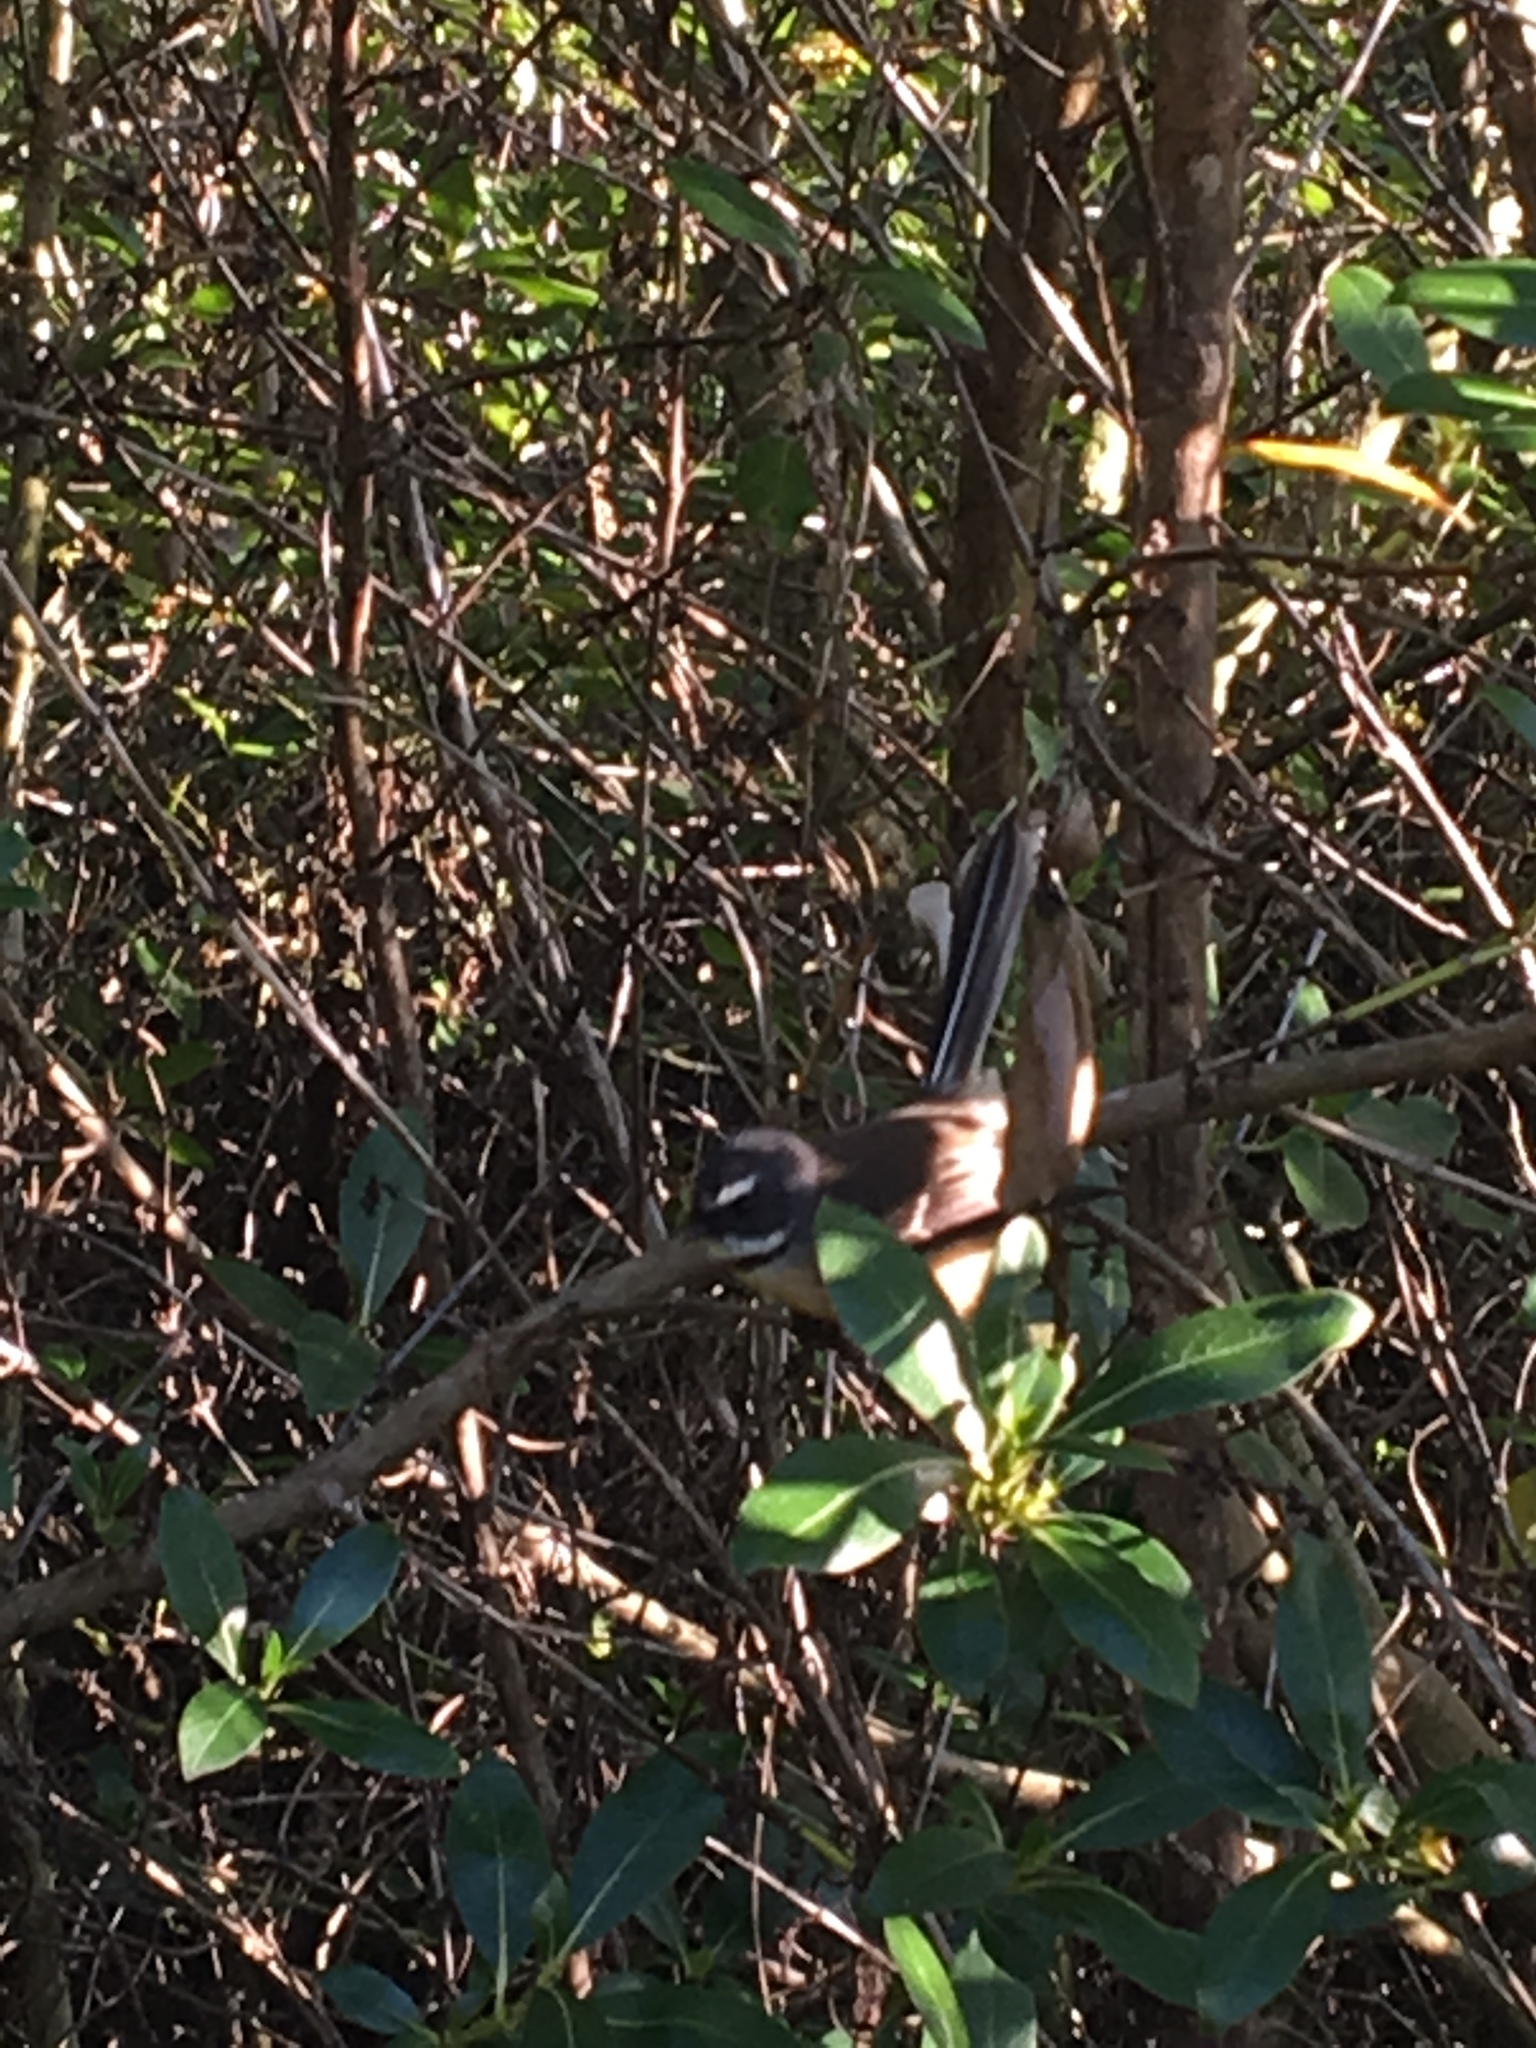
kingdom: Animalia
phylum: Chordata
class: Aves
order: Passeriformes
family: Rhipiduridae
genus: Rhipidura
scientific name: Rhipidura fuliginosa
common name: New zealand fantail
